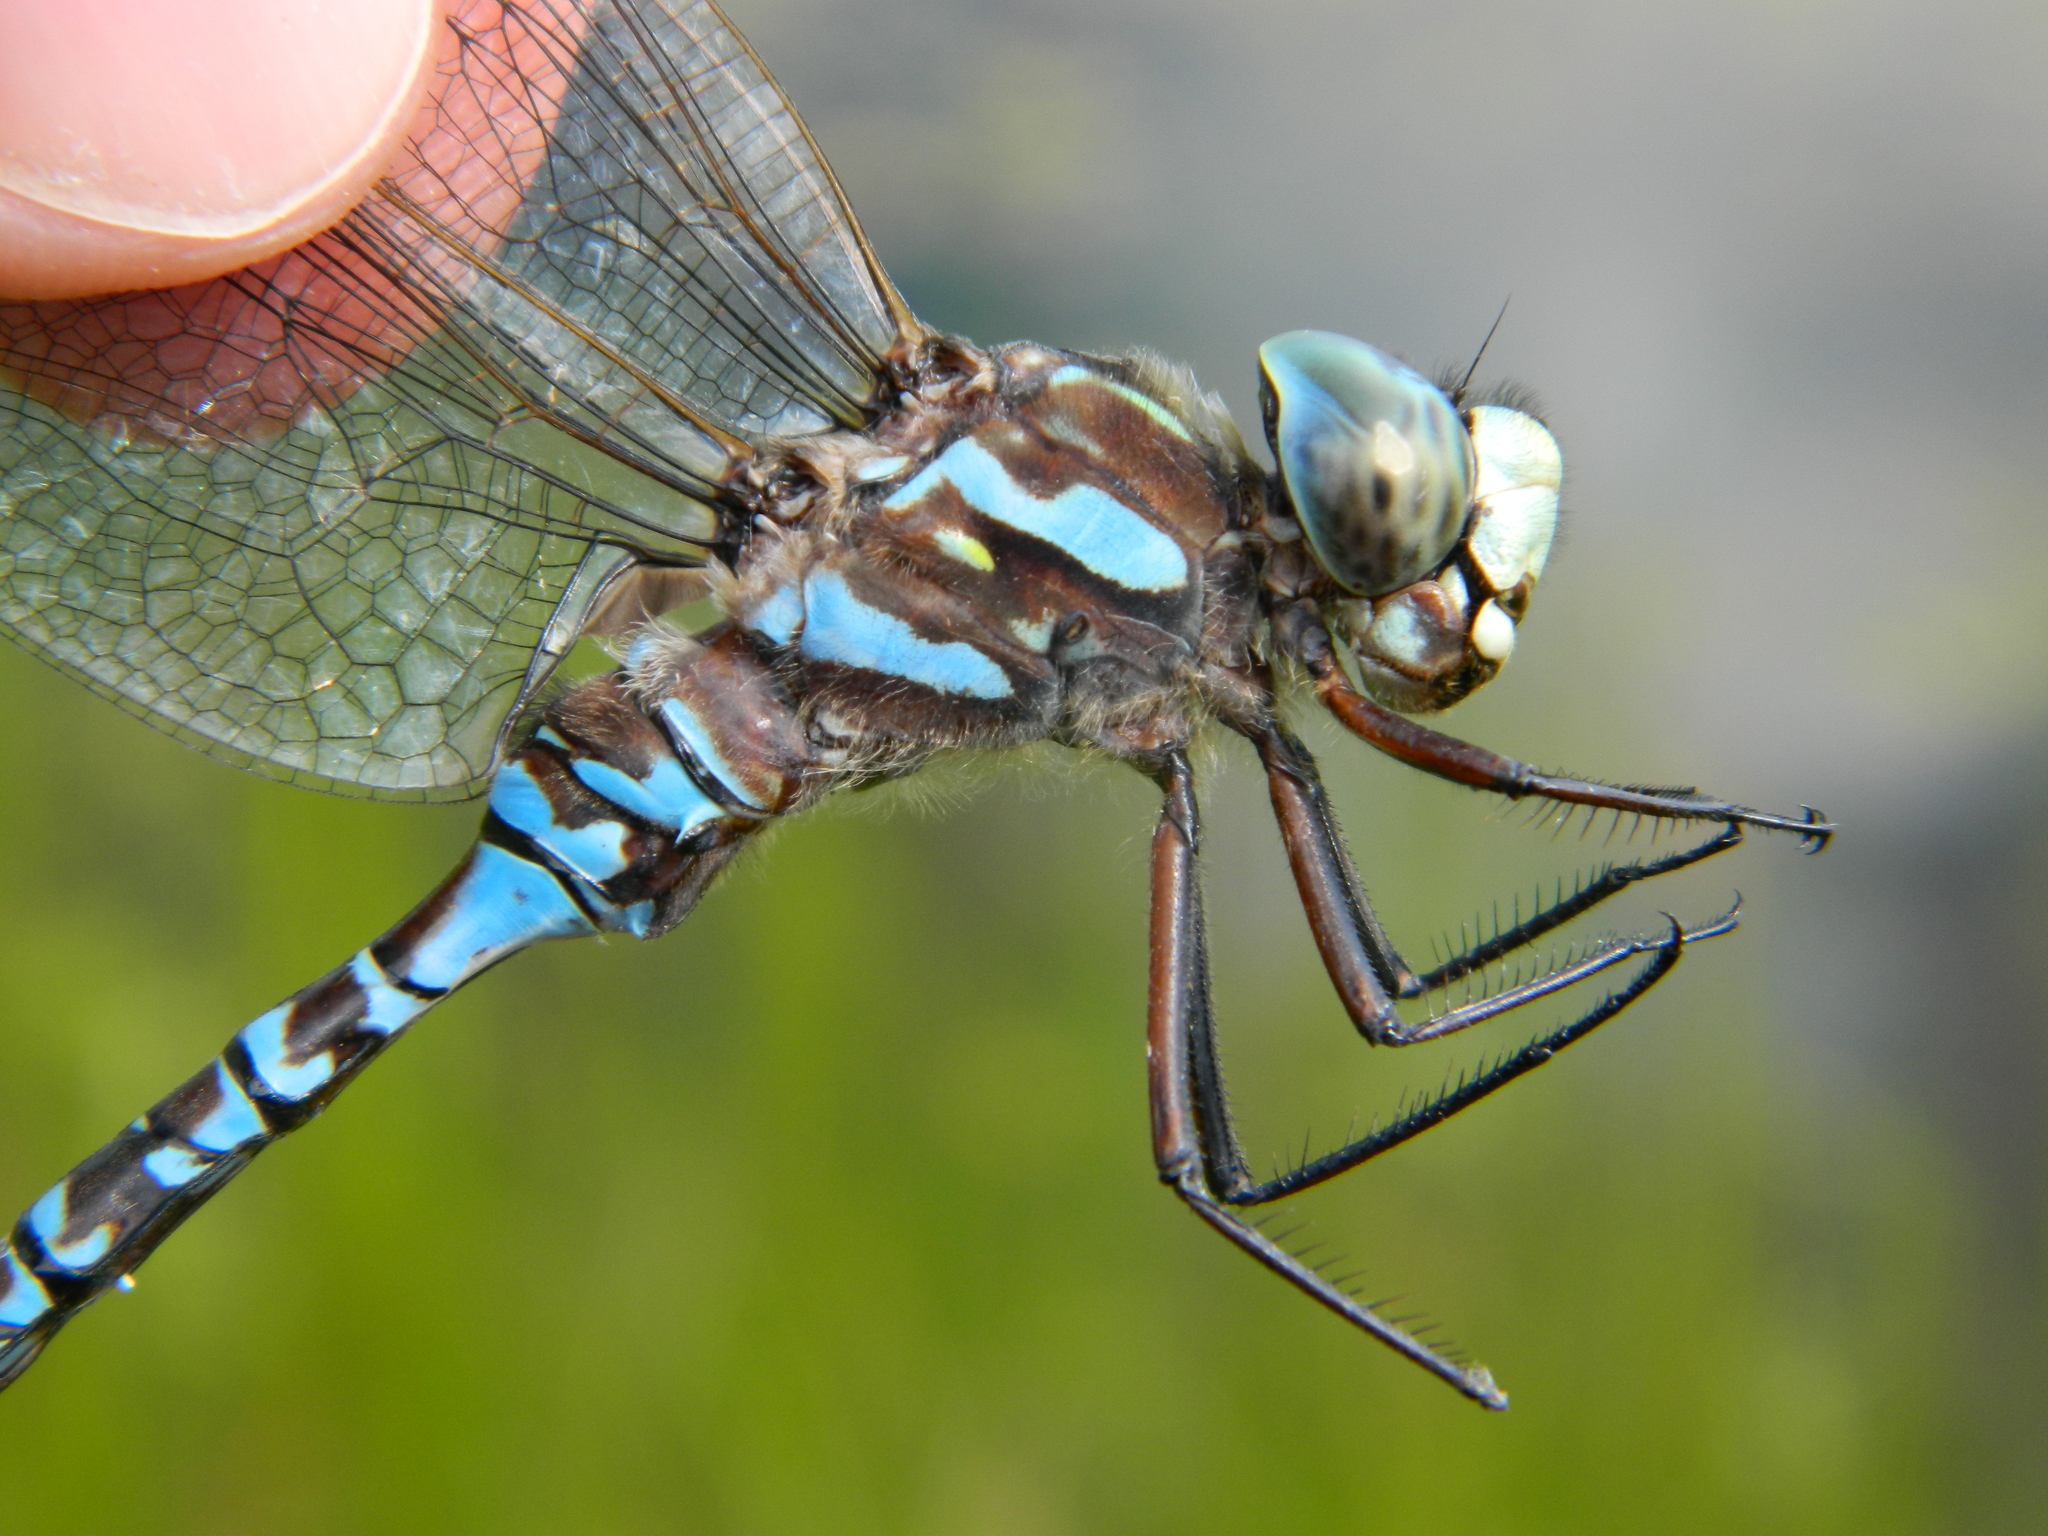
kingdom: Animalia
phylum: Arthropoda
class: Insecta
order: Odonata
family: Aeshnidae
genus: Aeshna
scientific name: Aeshna canadensis
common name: Canada darner
